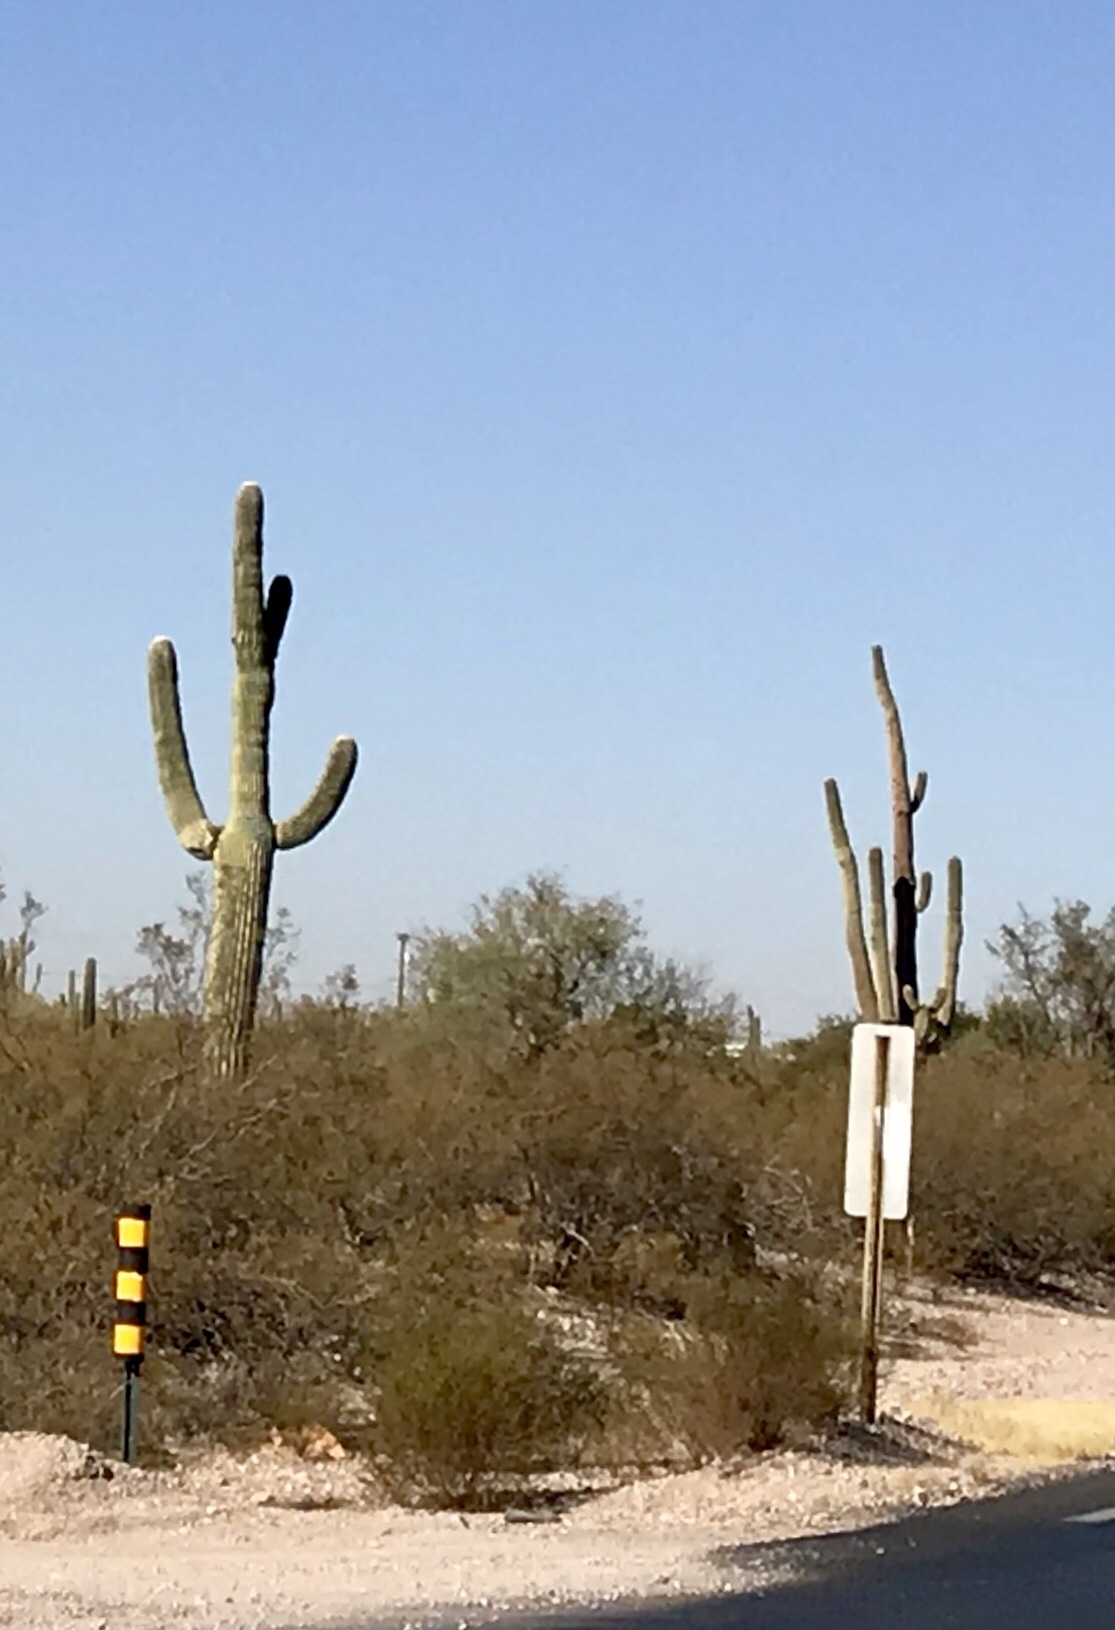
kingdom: Plantae
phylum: Tracheophyta
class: Magnoliopsida
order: Caryophyllales
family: Cactaceae
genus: Carnegiea
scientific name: Carnegiea gigantea
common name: Saguaro
